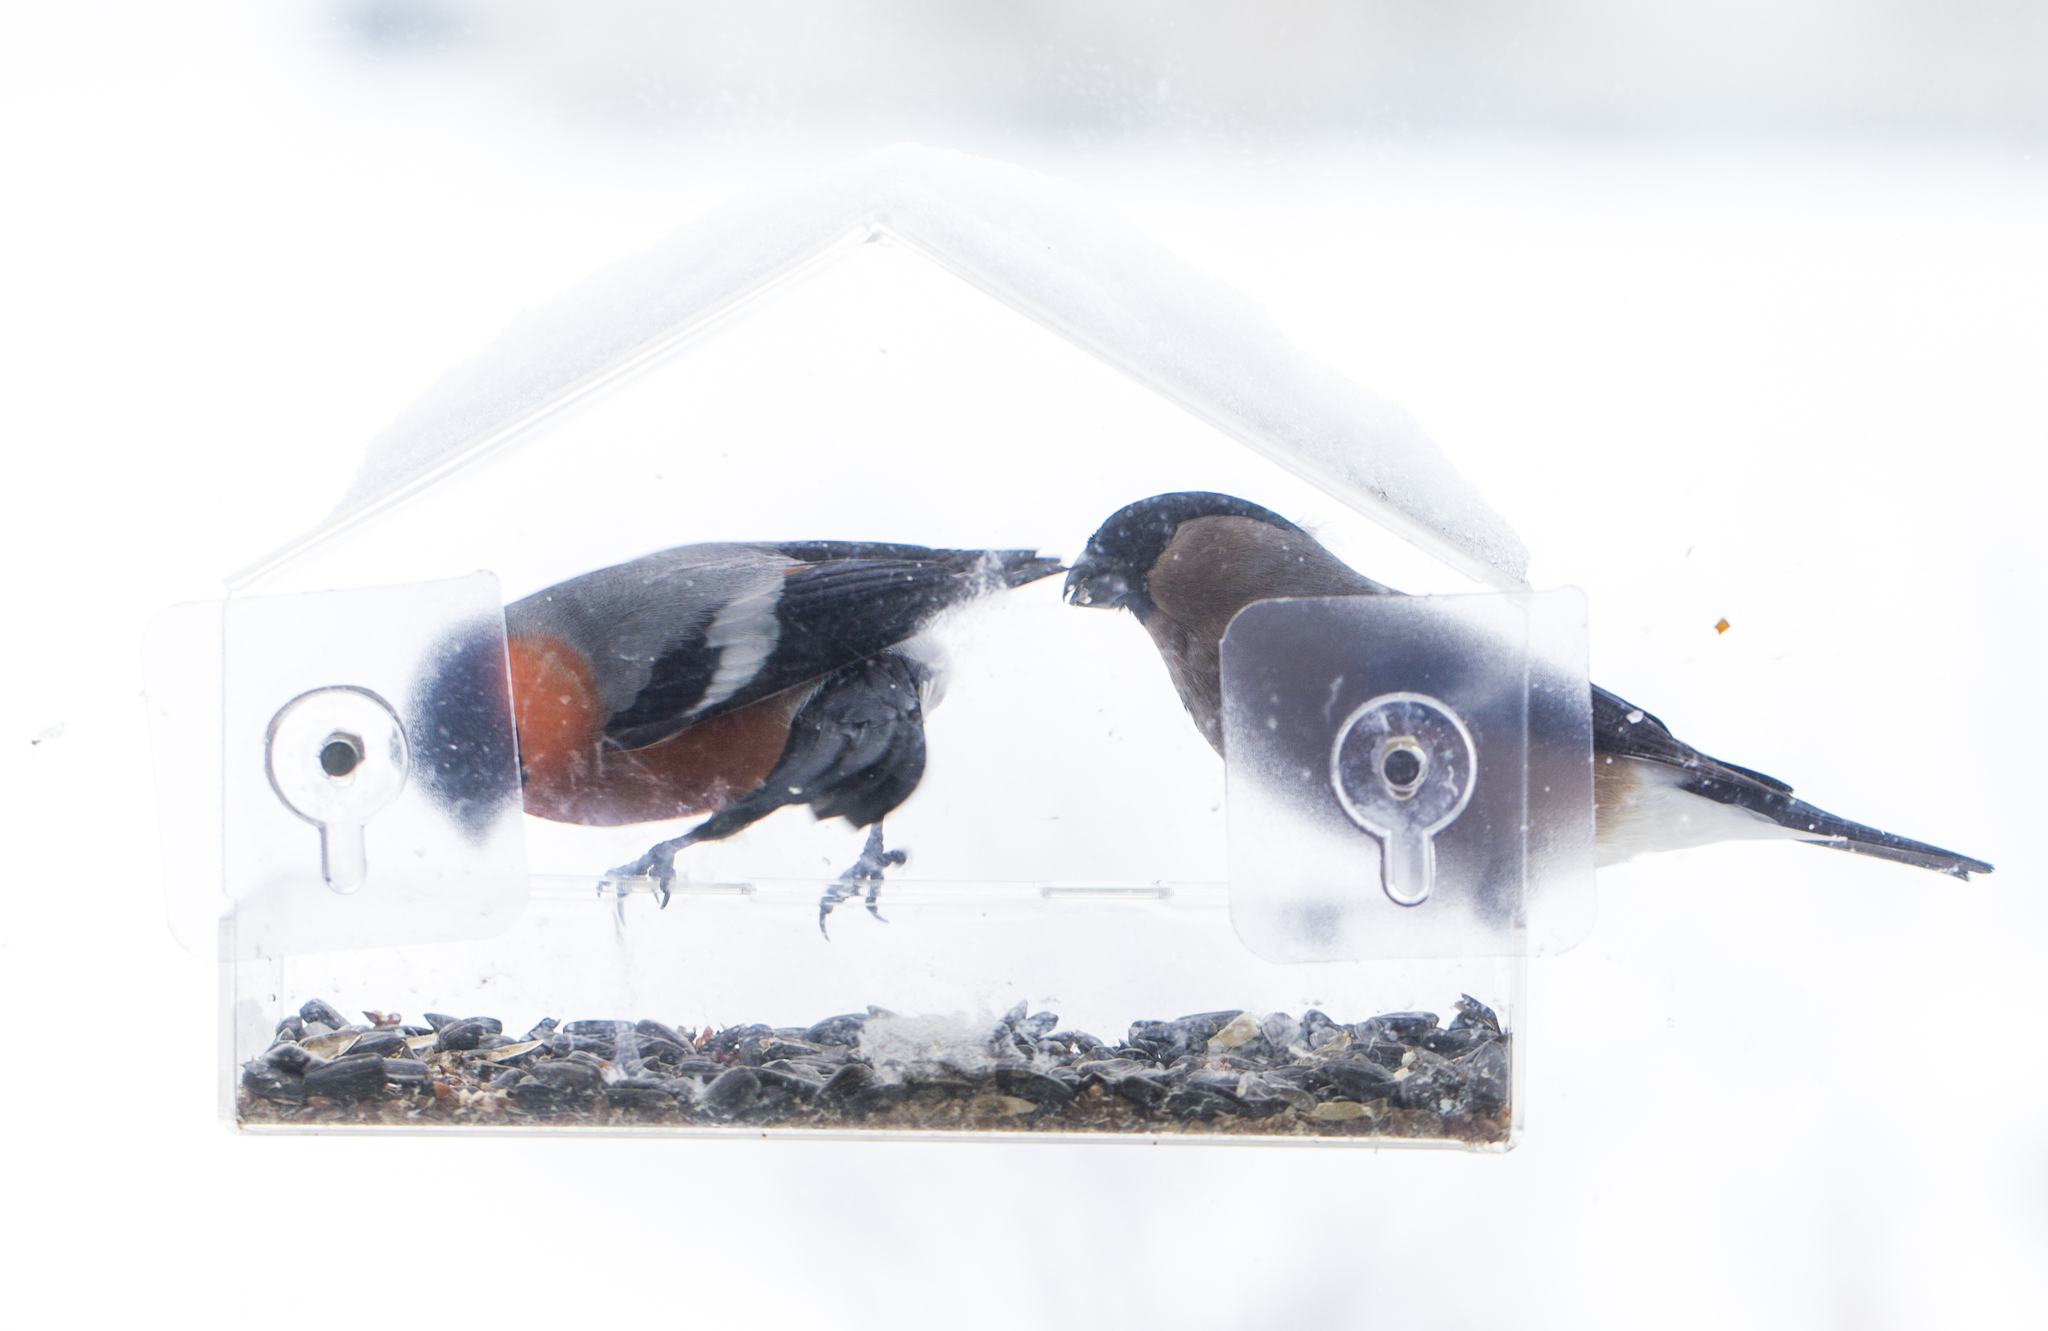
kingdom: Animalia
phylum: Chordata
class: Aves
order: Passeriformes
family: Fringillidae
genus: Pyrrhula
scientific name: Pyrrhula pyrrhula
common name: Eurasian bullfinch
